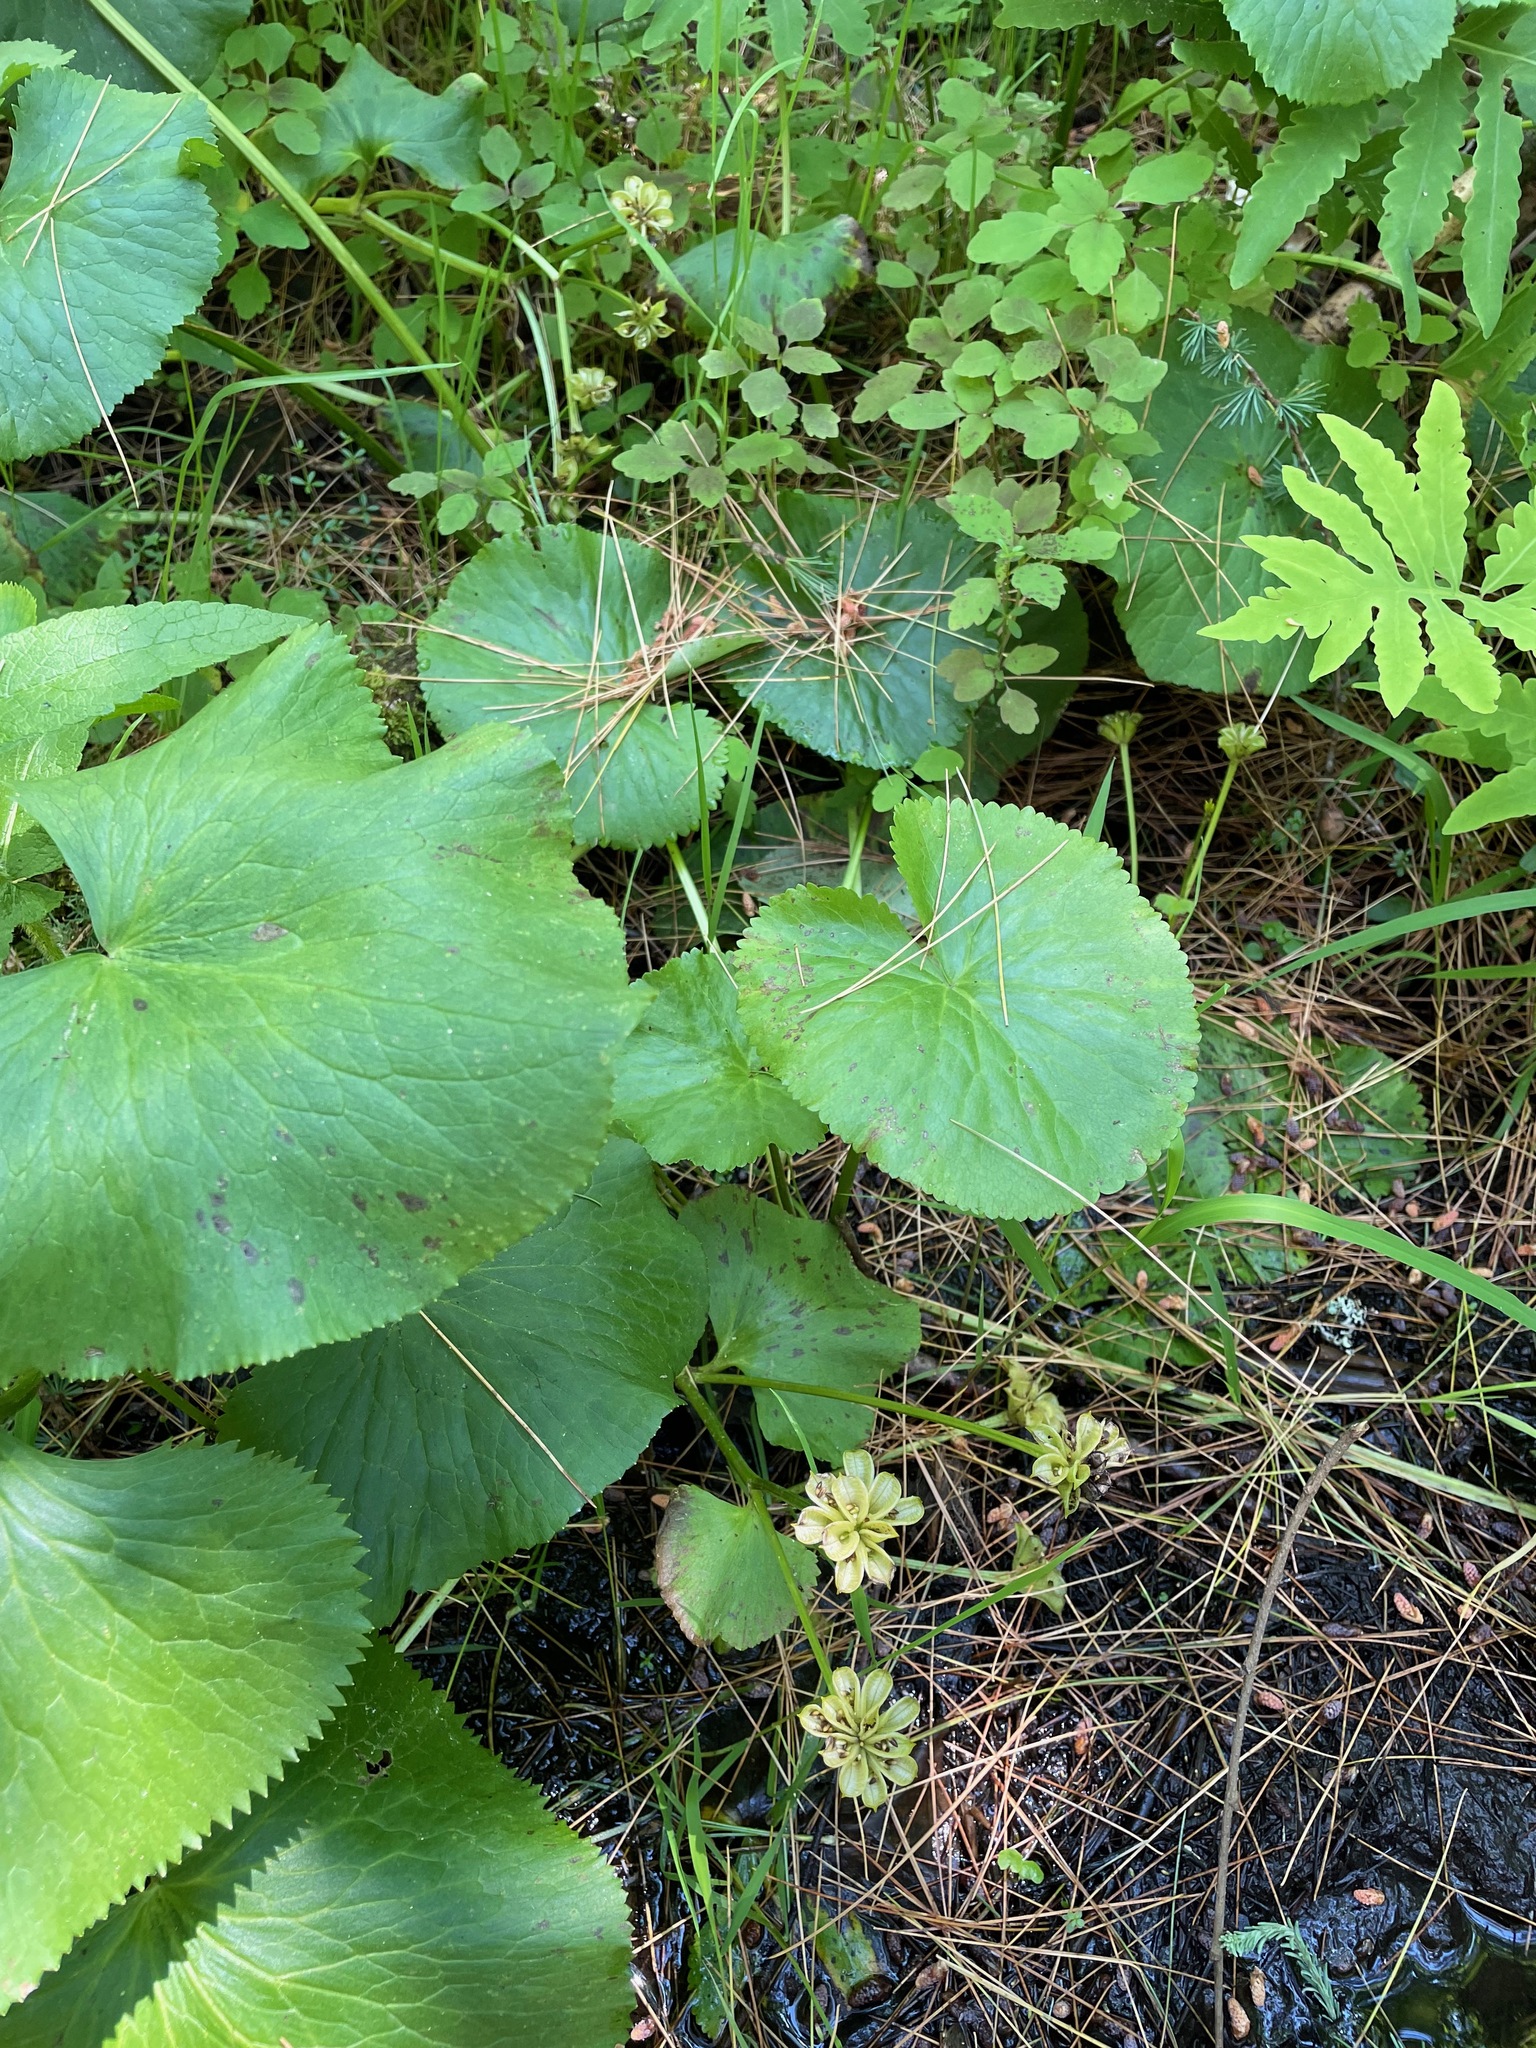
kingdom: Plantae
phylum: Tracheophyta
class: Magnoliopsida
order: Ranunculales
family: Ranunculaceae
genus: Caltha
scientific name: Caltha palustris
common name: Marsh marigold
